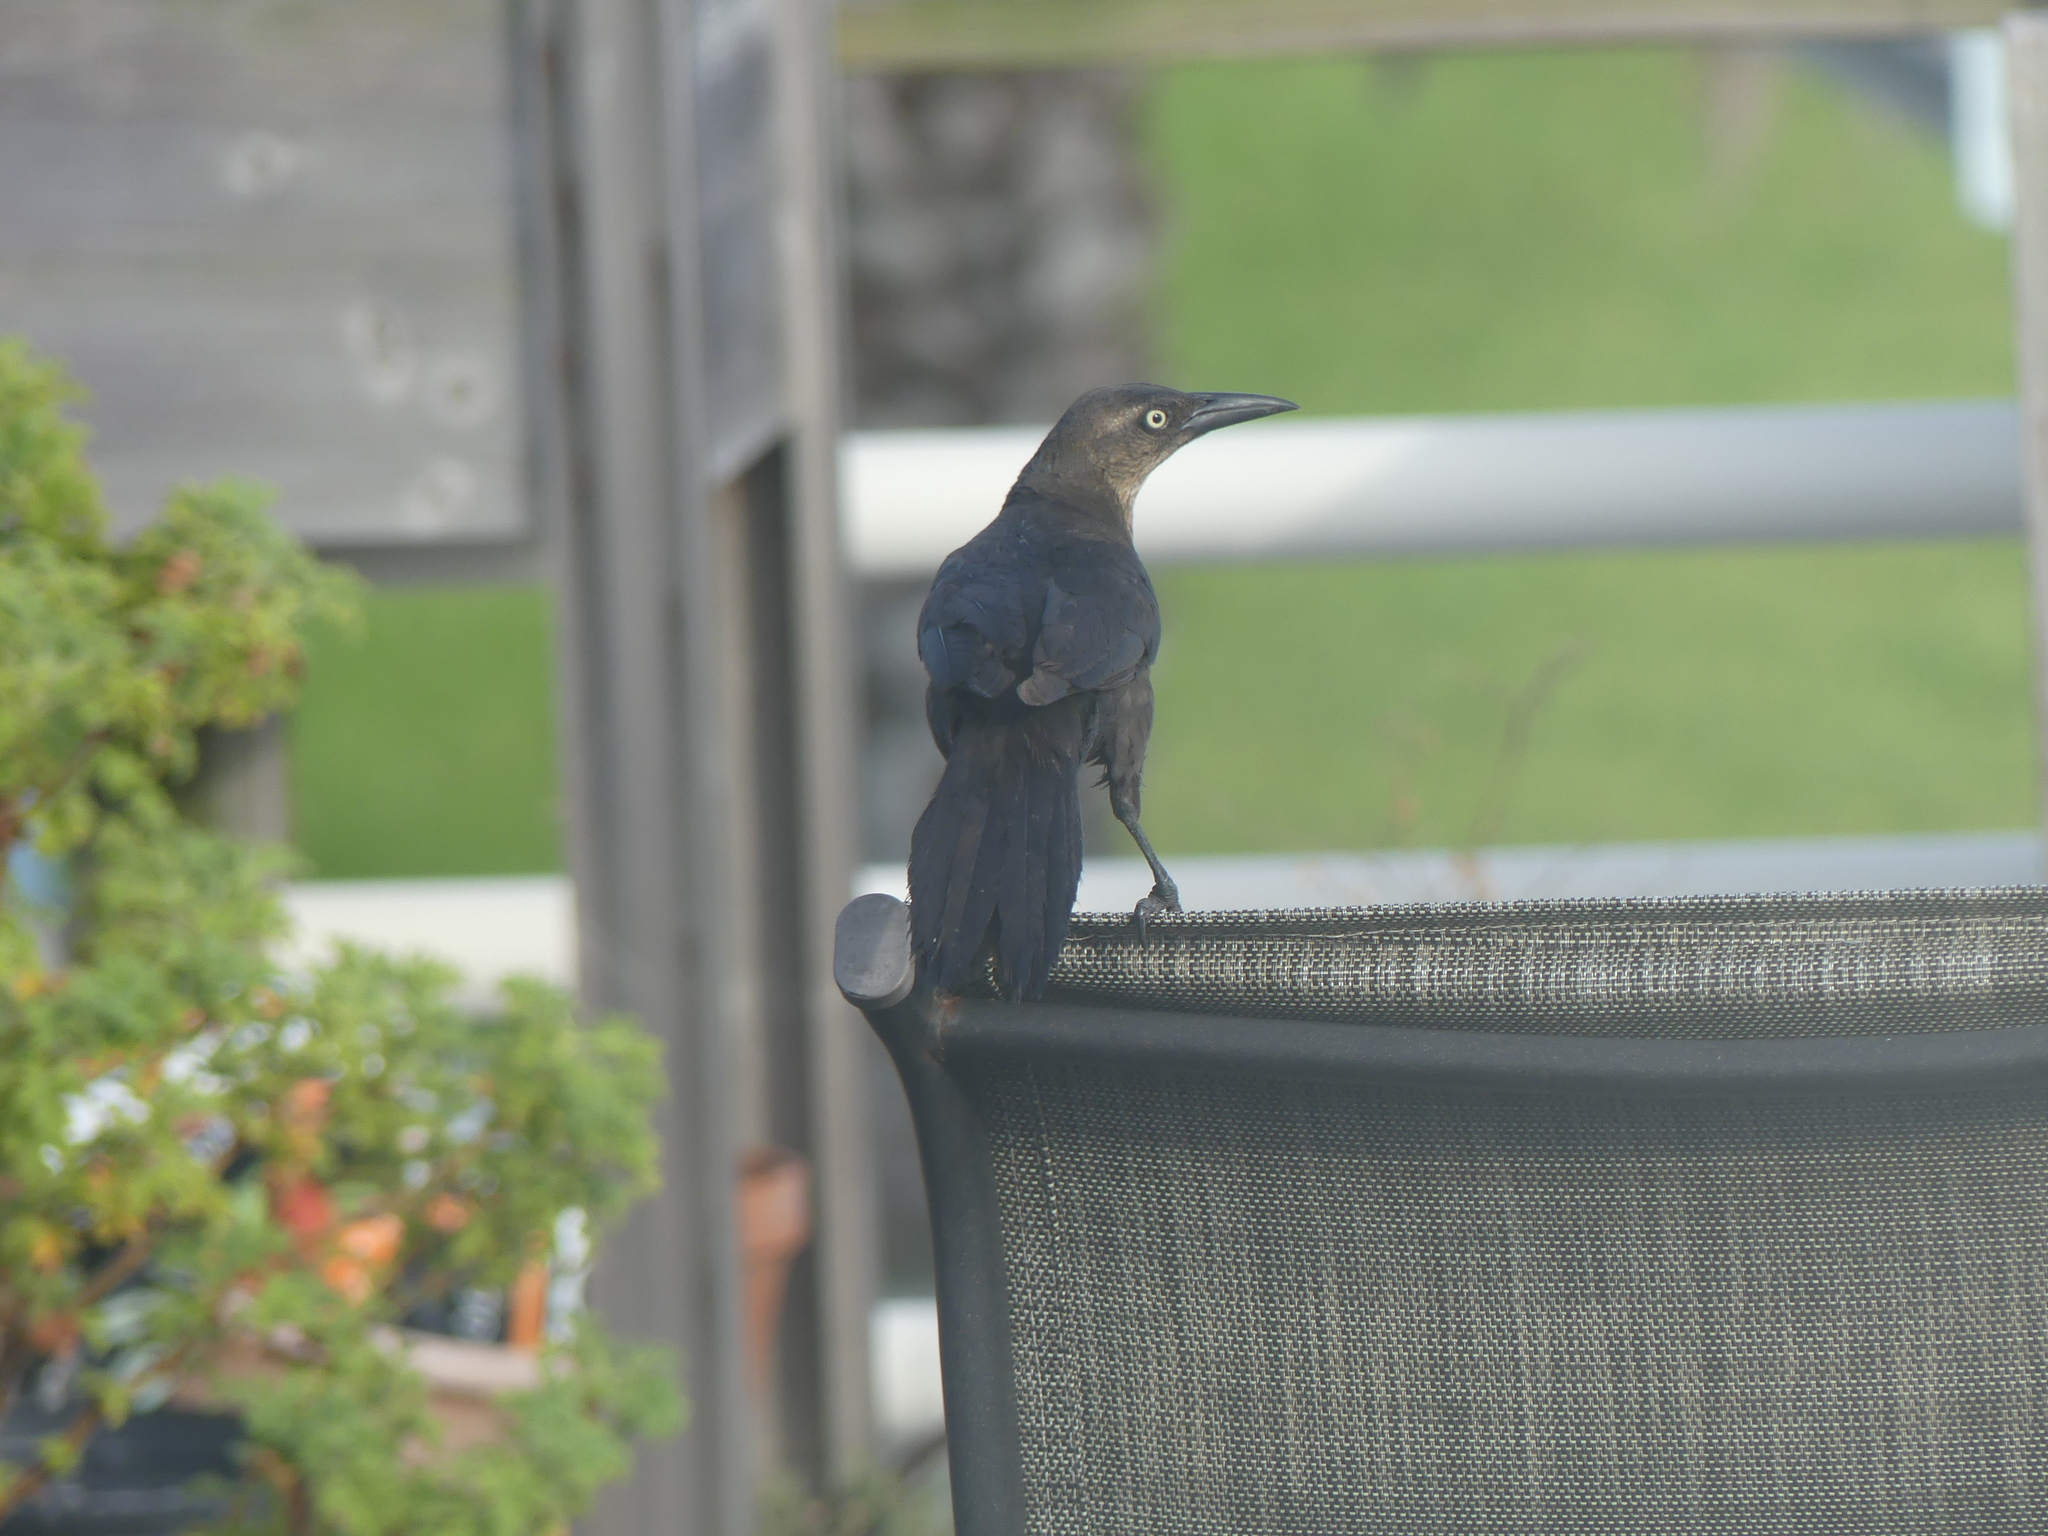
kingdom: Animalia
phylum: Chordata
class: Aves
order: Passeriformes
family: Icteridae
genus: Quiscalus
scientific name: Quiscalus mexicanus
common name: Great-tailed grackle
